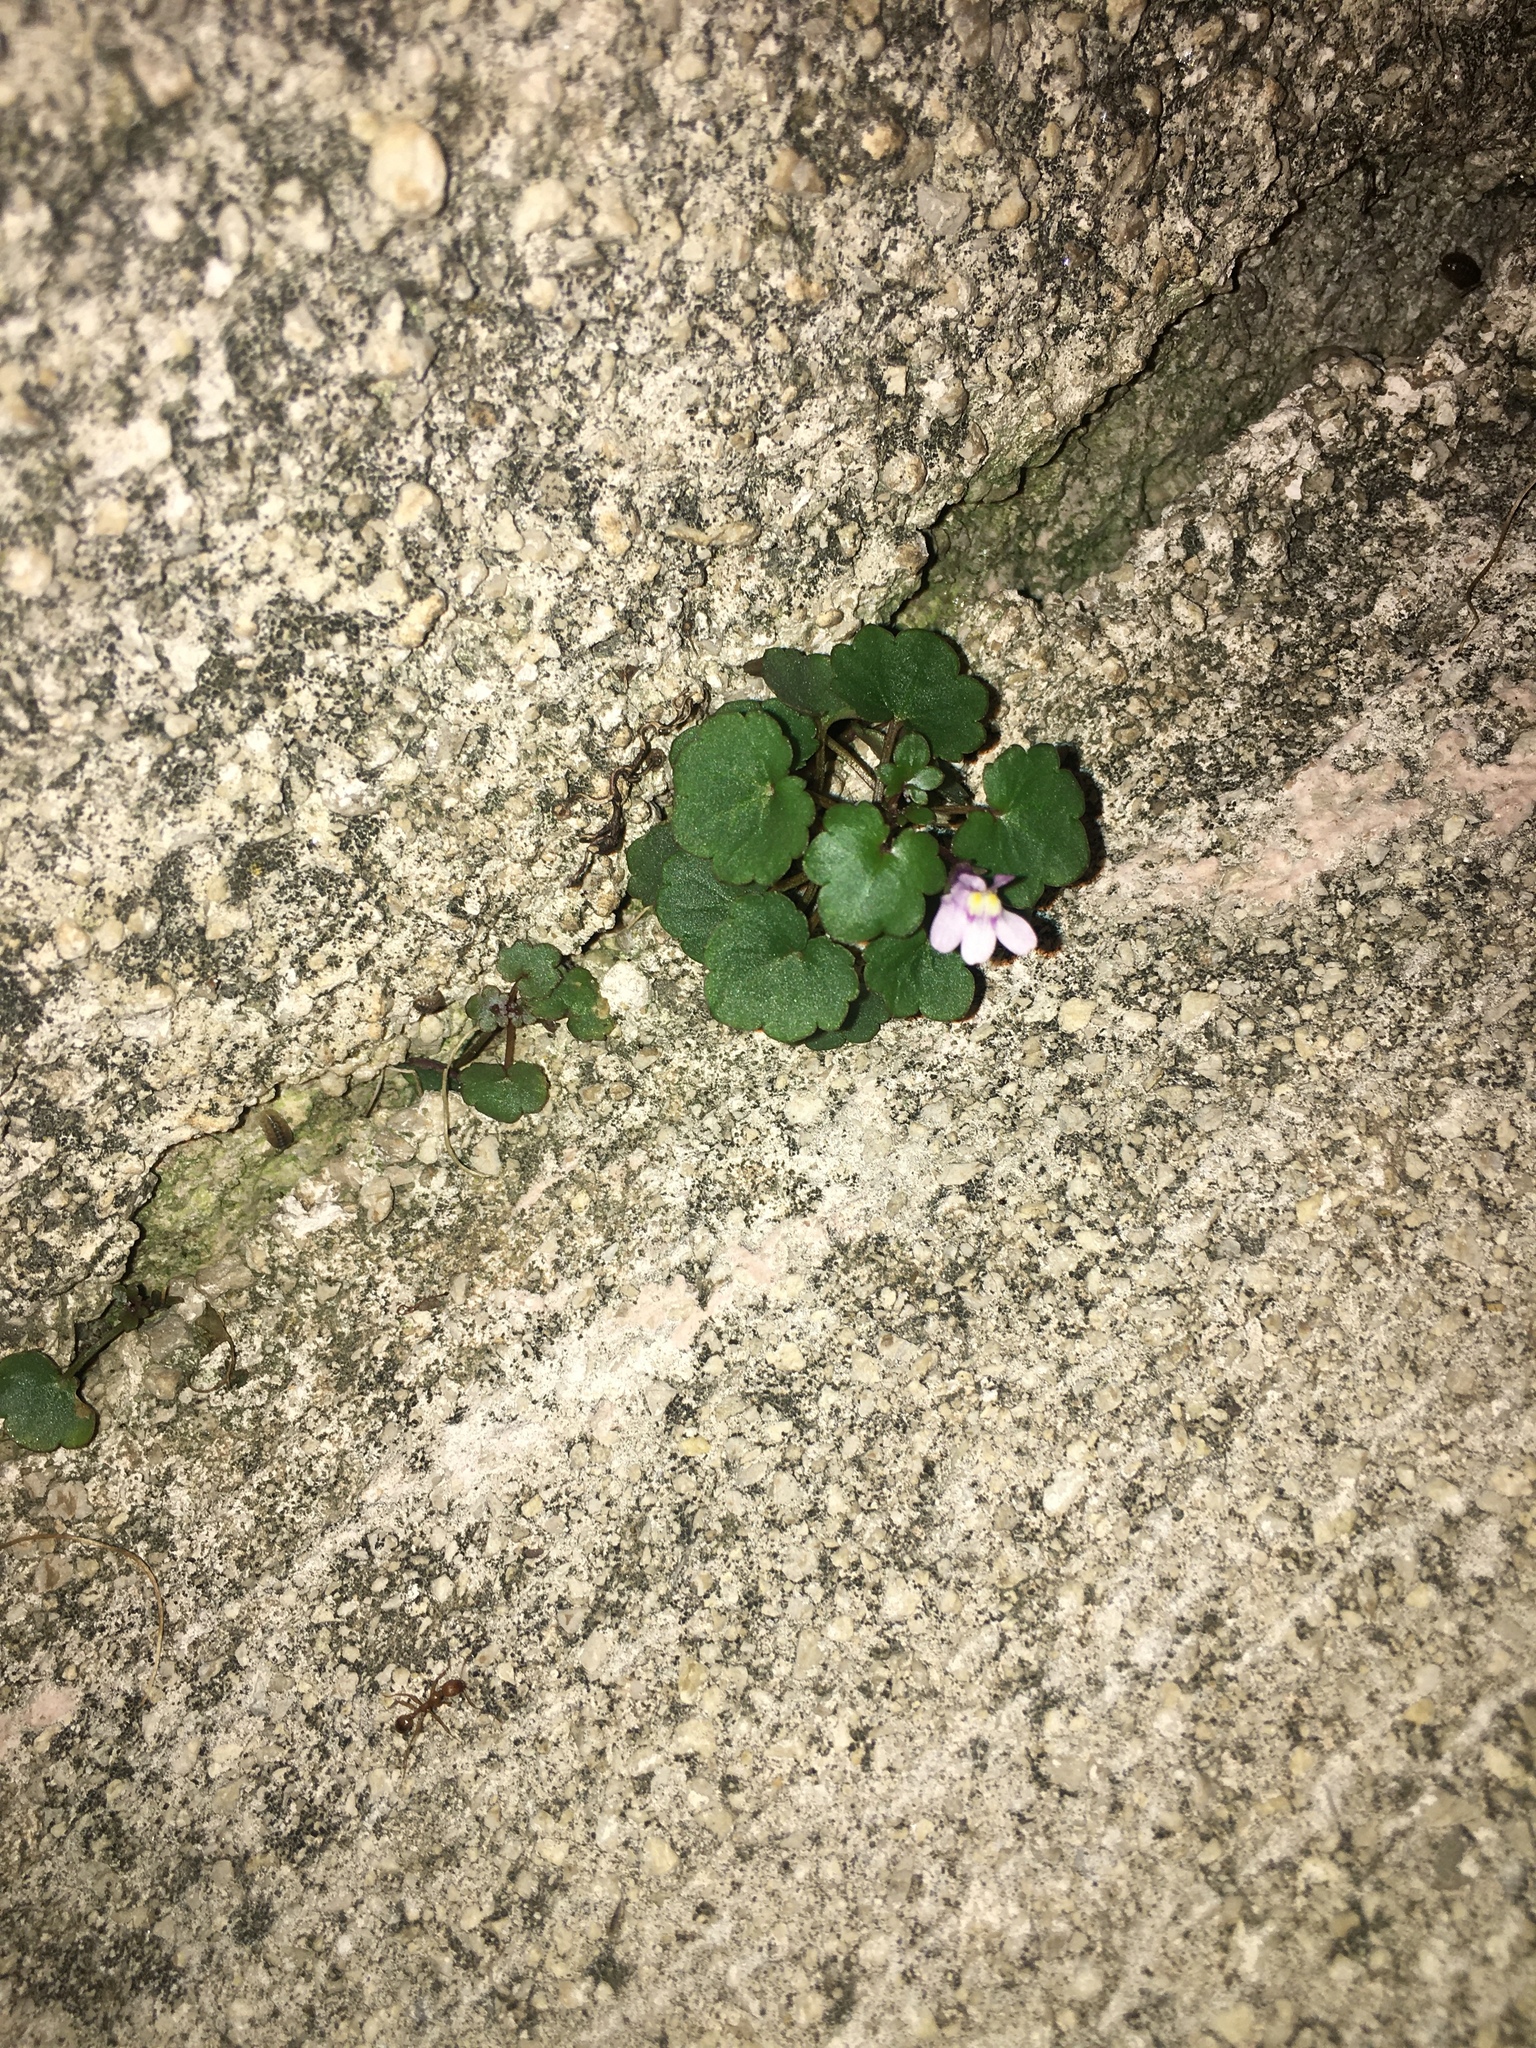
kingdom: Plantae
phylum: Tracheophyta
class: Magnoliopsida
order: Lamiales
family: Plantaginaceae
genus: Cymbalaria
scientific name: Cymbalaria muralis
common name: Ivy-leaved toadflax
